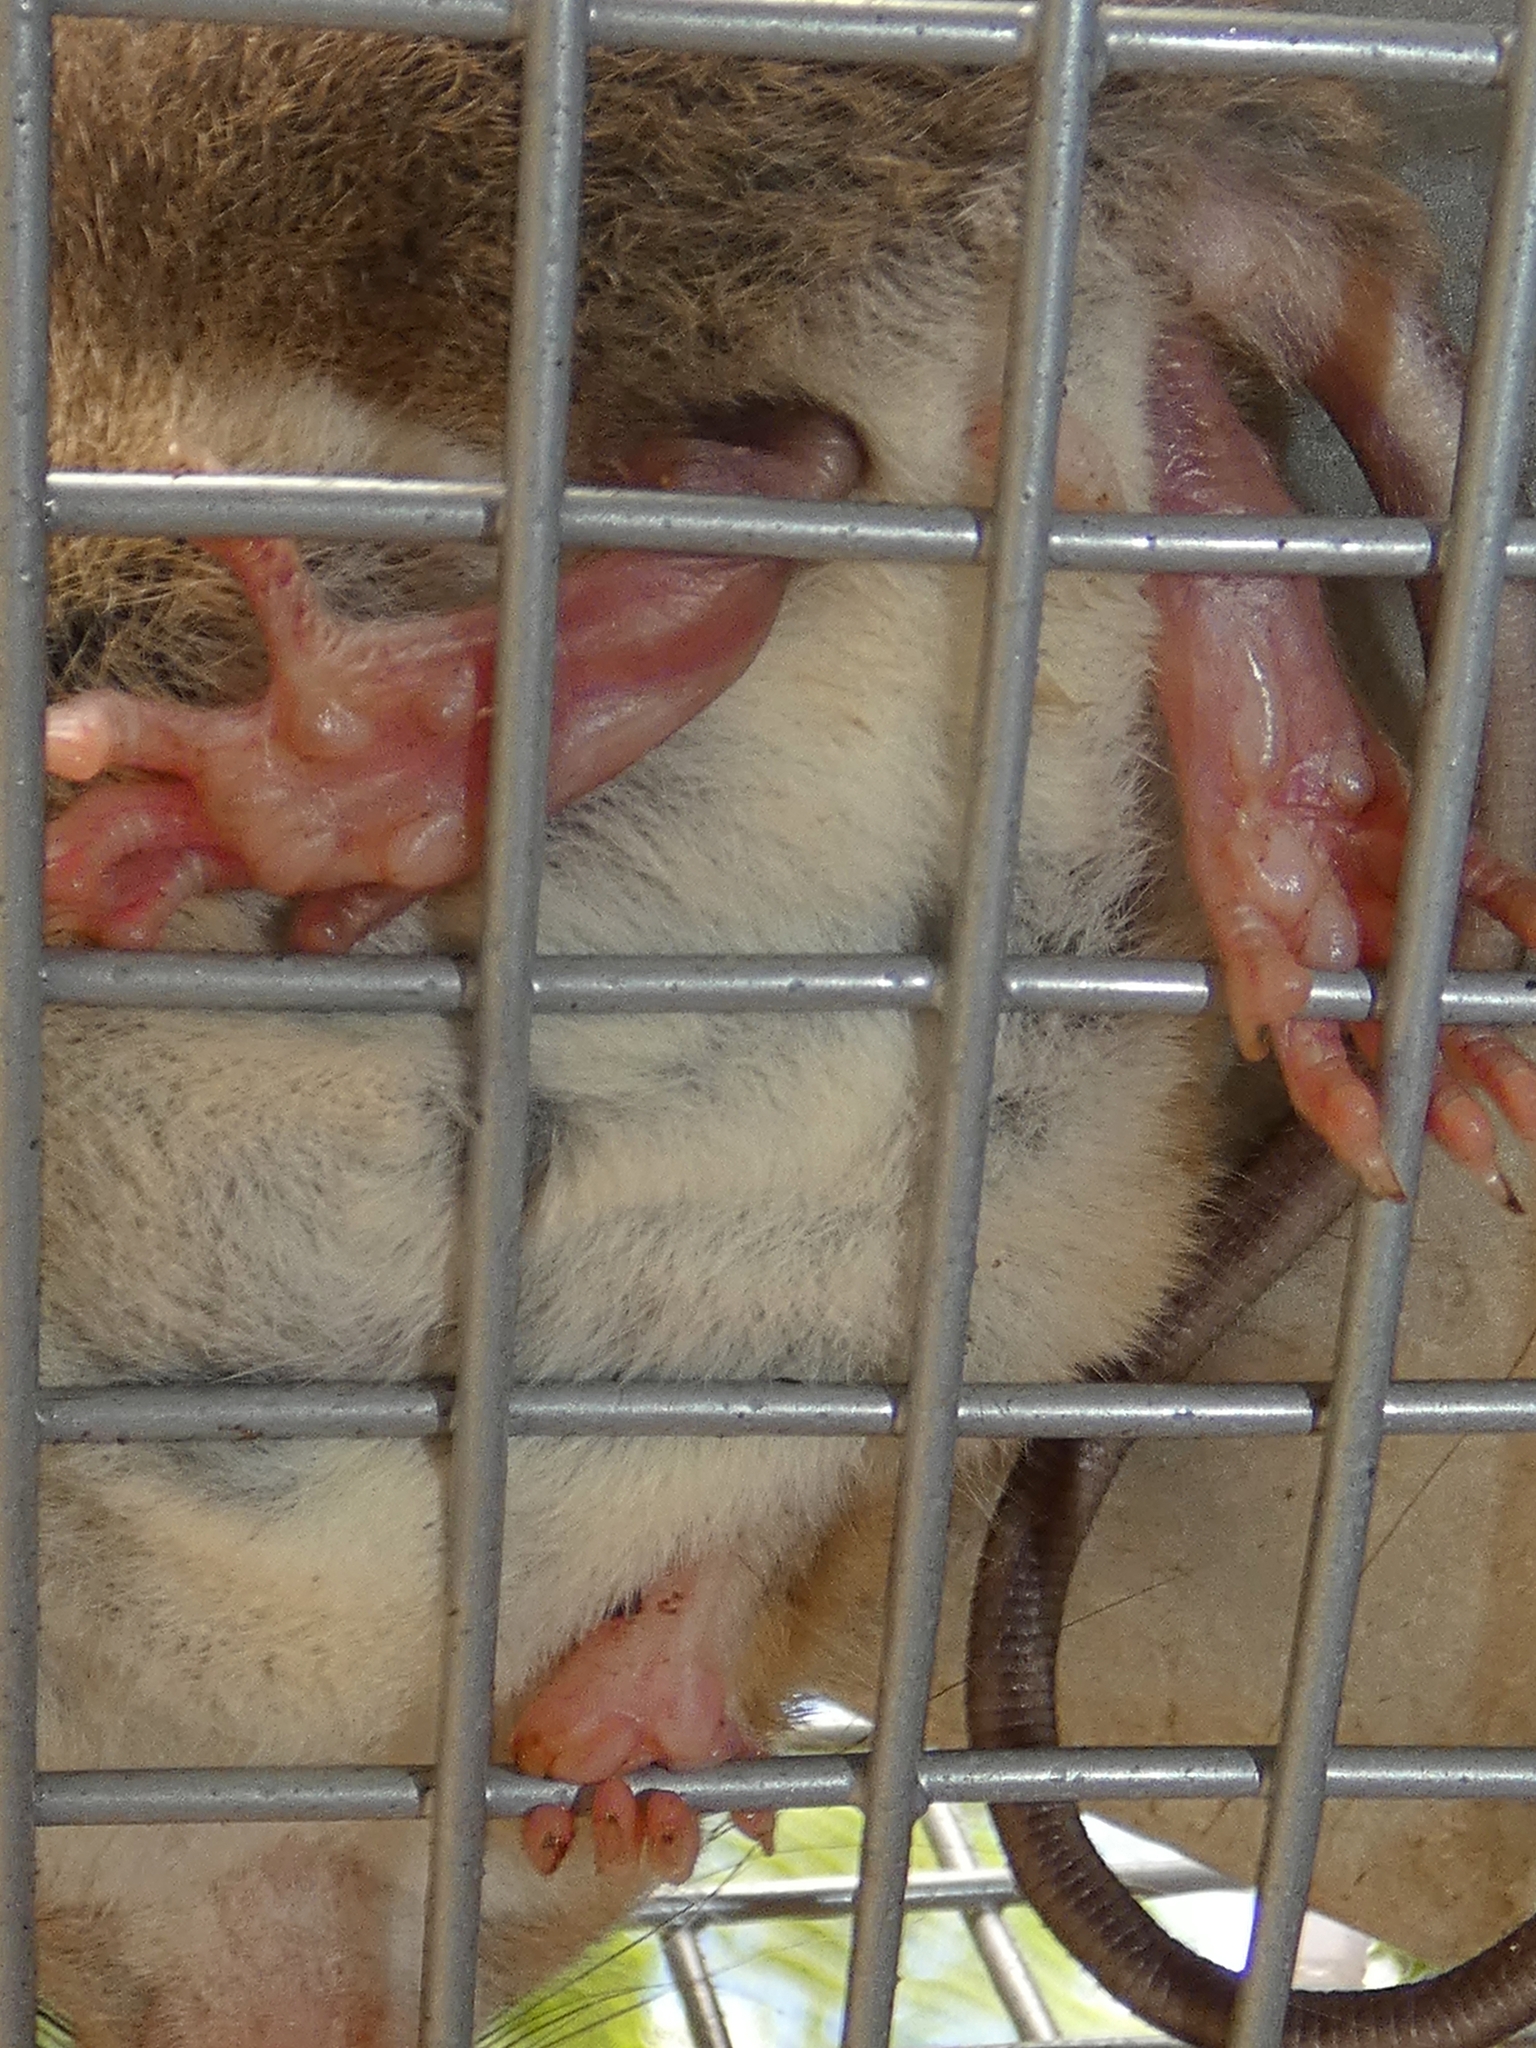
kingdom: Animalia
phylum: Chordata
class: Mammalia
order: Rodentia
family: Muridae
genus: Melomys
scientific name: Melomys cervinipes
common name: Fawn-footed melomys
